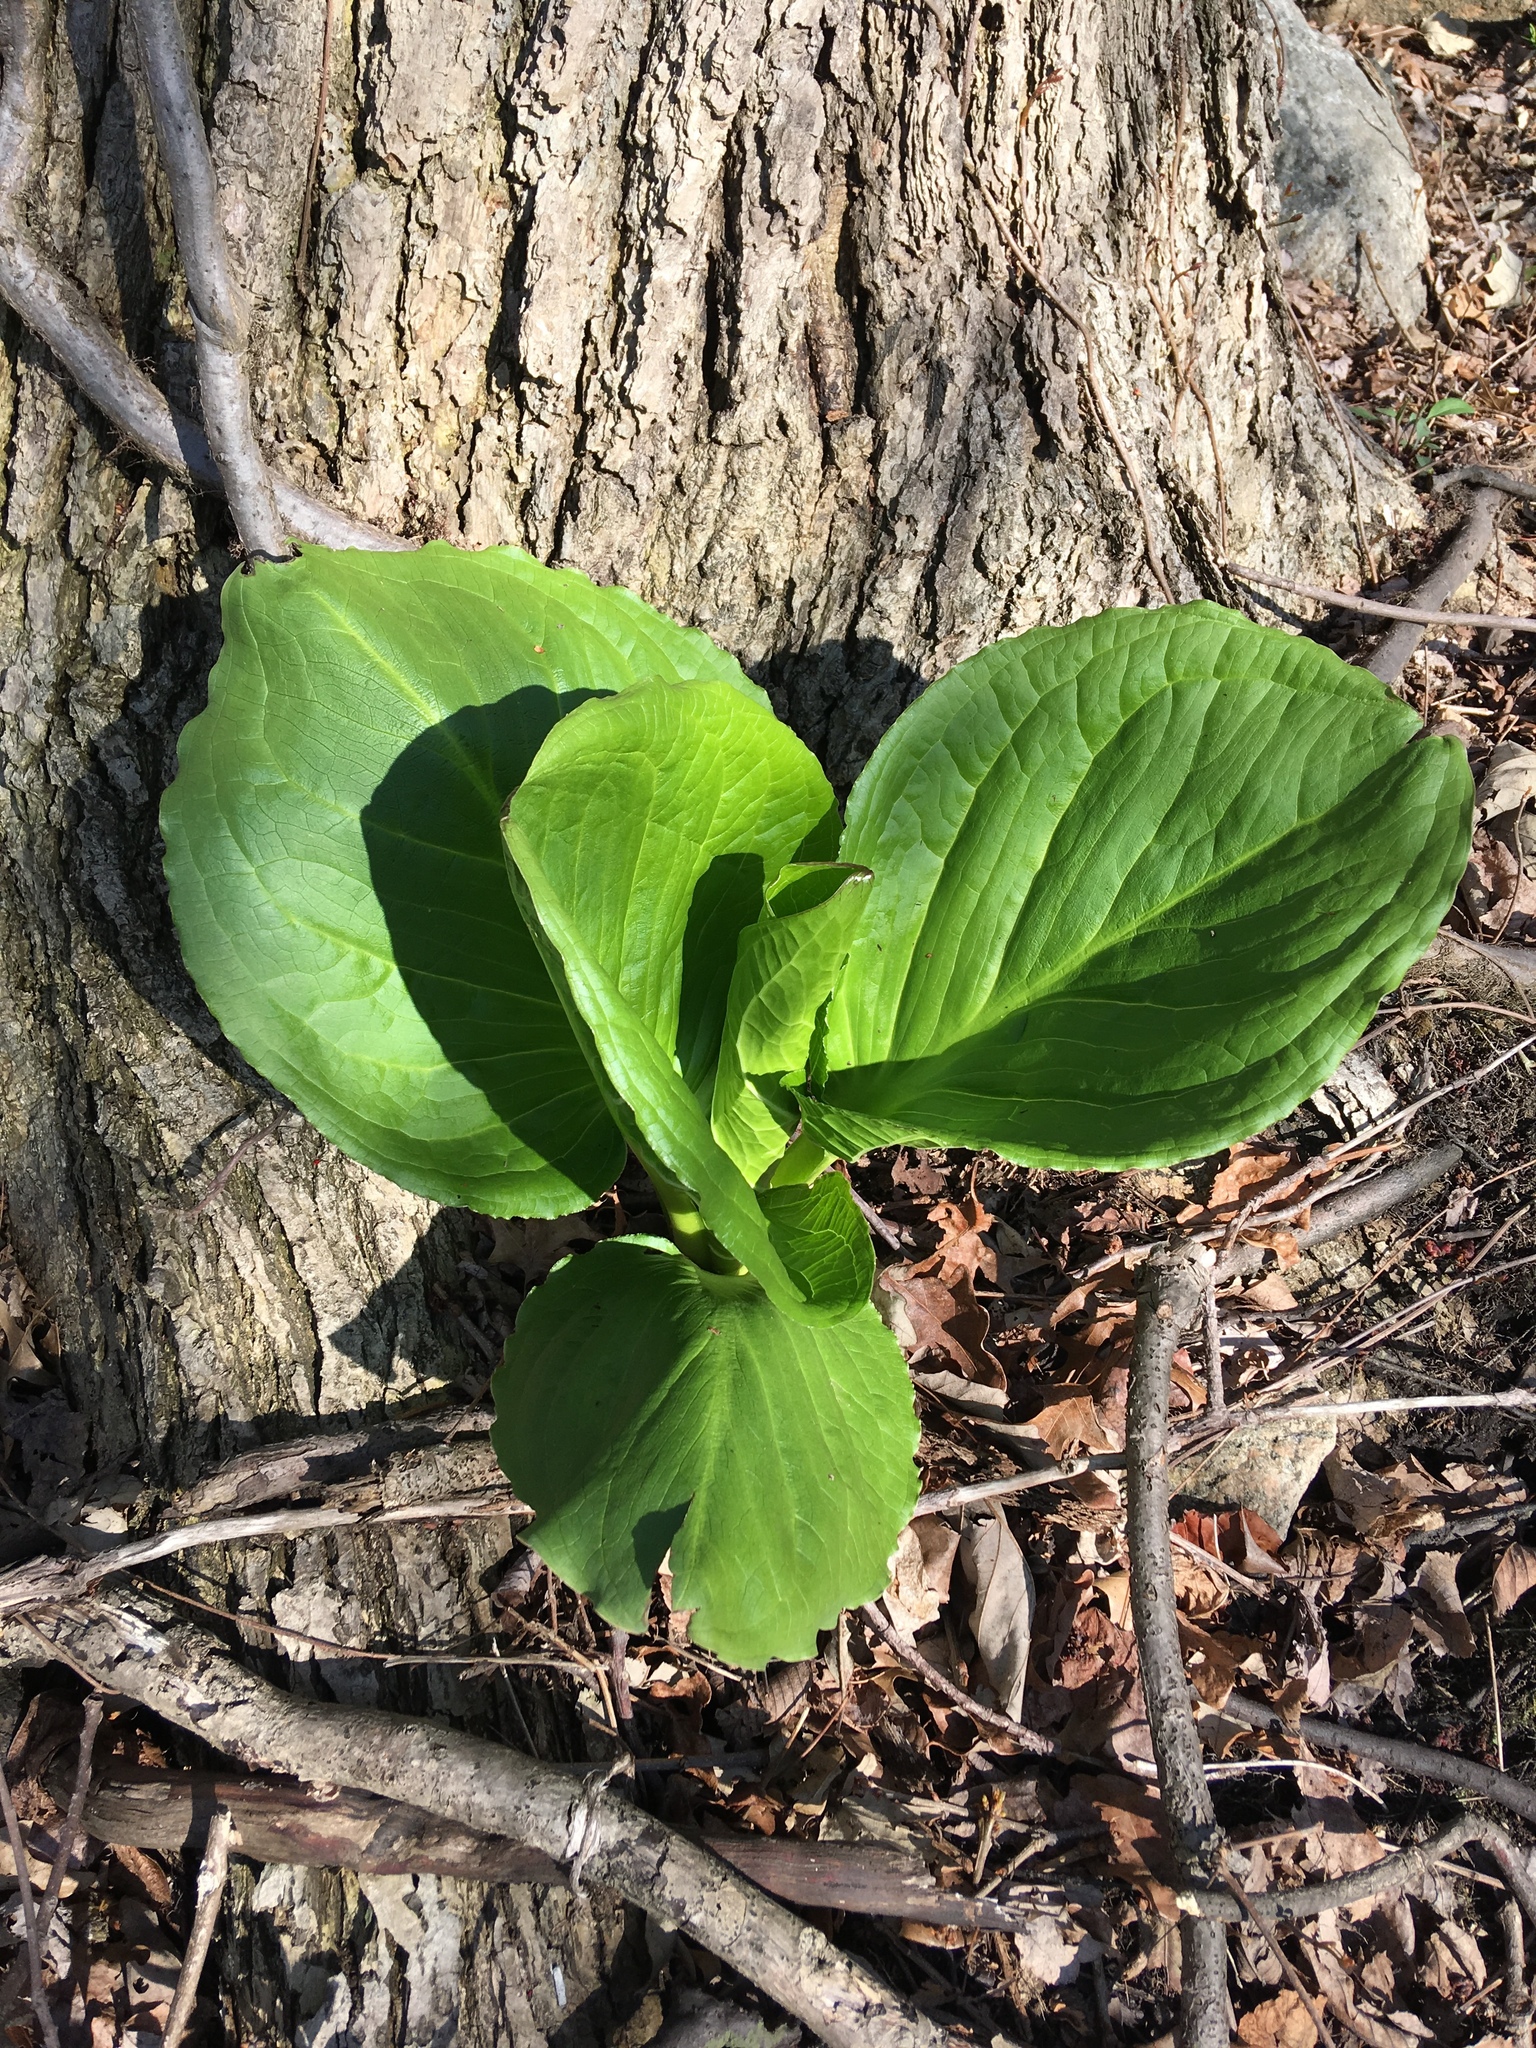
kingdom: Plantae
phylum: Tracheophyta
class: Liliopsida
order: Alismatales
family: Araceae
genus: Symplocarpus
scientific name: Symplocarpus foetidus
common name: Eastern skunk cabbage
